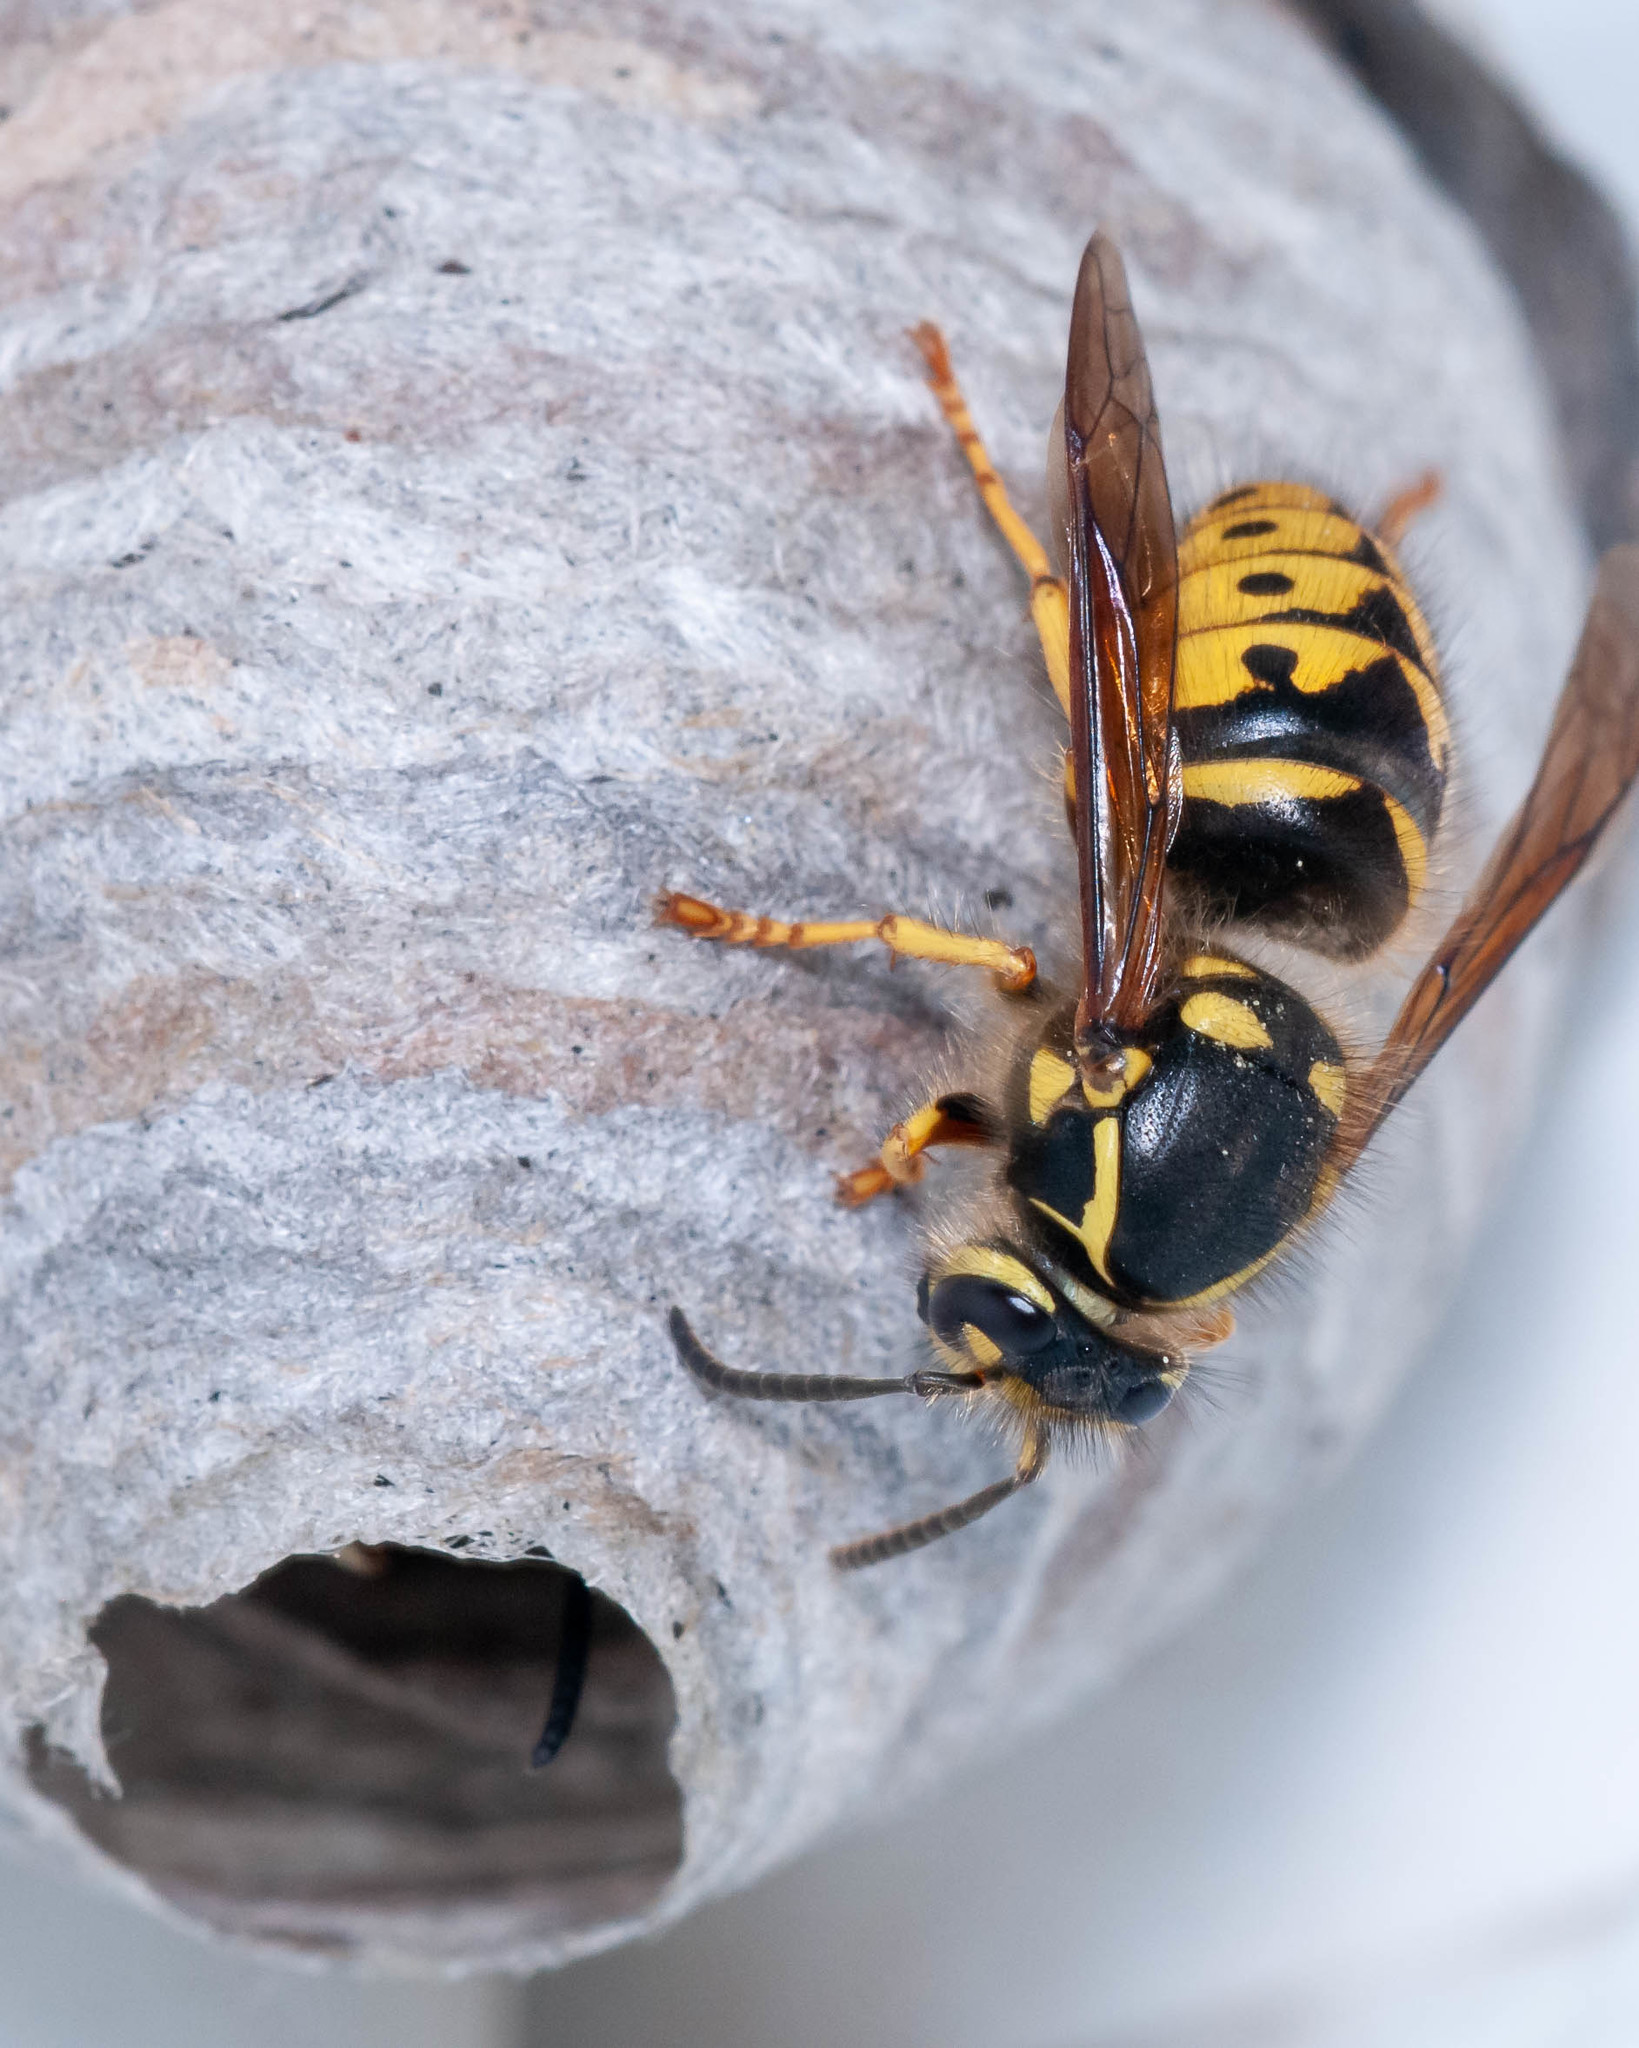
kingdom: Animalia
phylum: Arthropoda
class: Insecta
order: Hymenoptera
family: Vespidae
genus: Dolichovespula
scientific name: Dolichovespula arenaria
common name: Aerial yellowjacket
